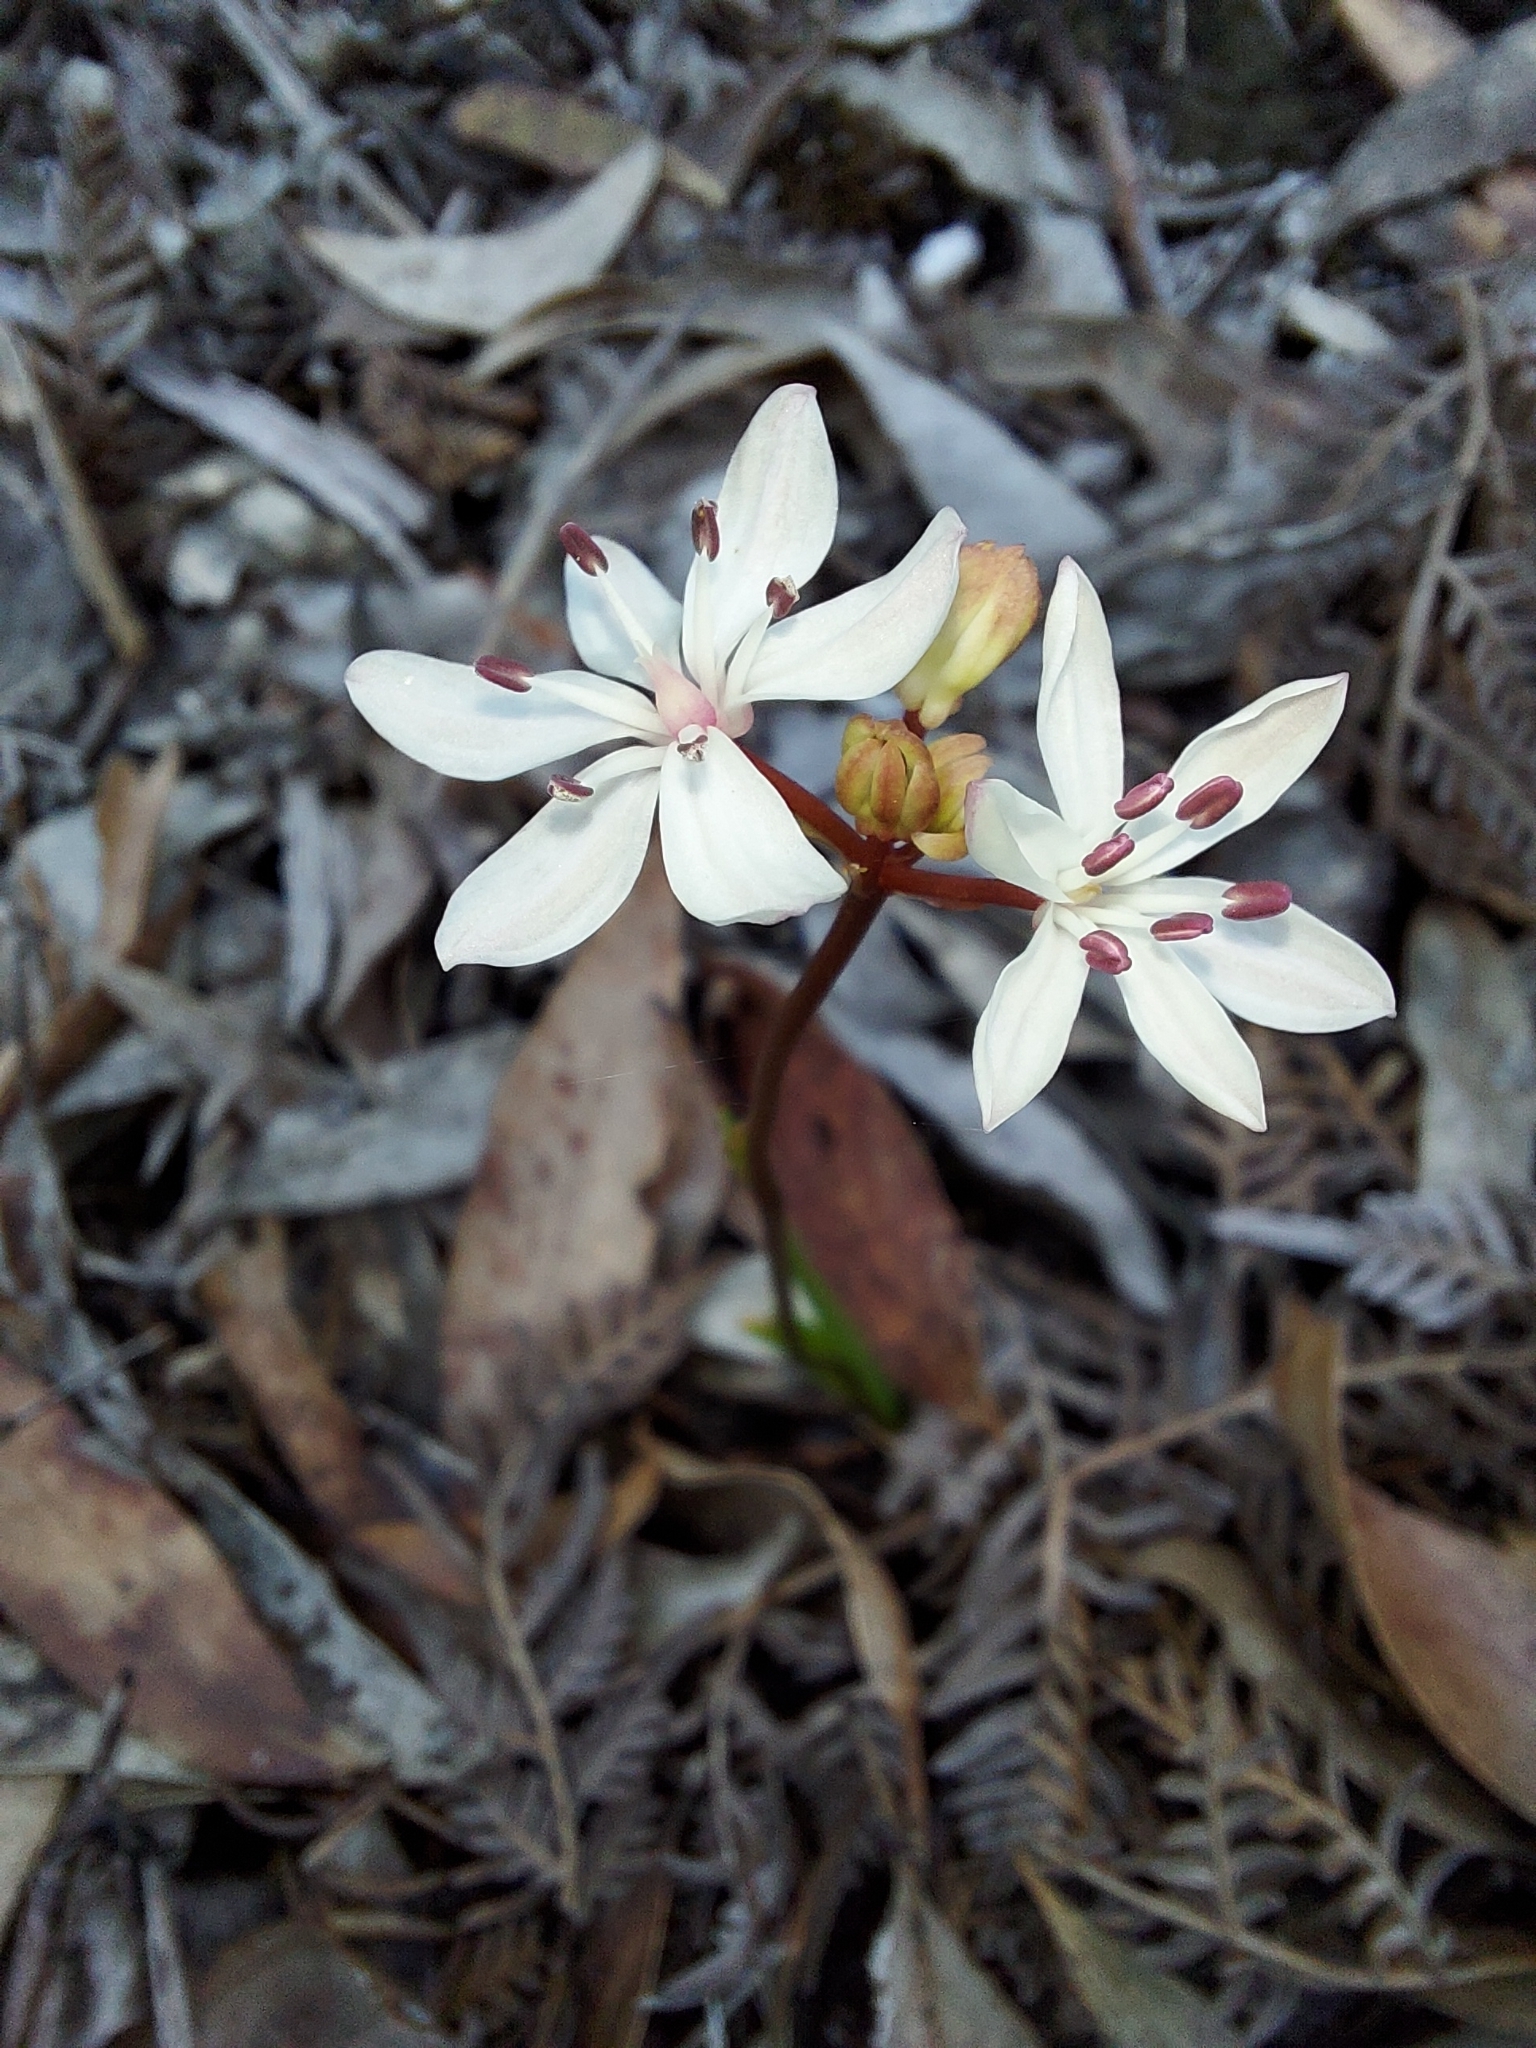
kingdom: Plantae
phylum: Tracheophyta
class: Liliopsida
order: Liliales
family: Colchicaceae
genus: Burchardia
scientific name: Burchardia umbellata
